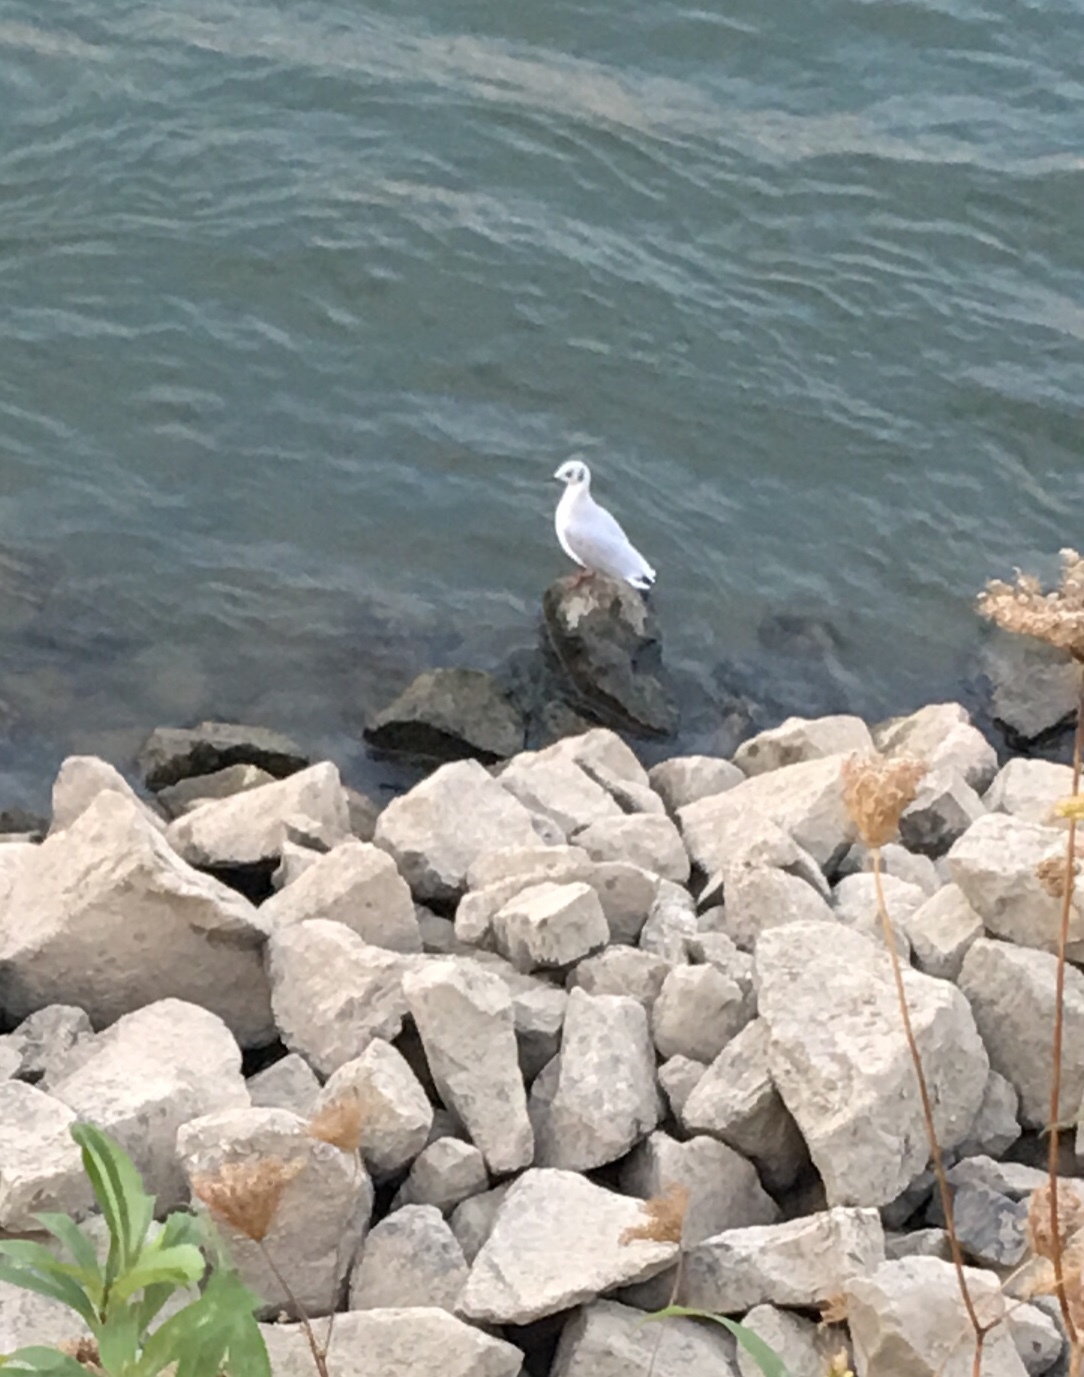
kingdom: Animalia
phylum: Chordata
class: Aves
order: Charadriiformes
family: Laridae
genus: Chroicocephalus
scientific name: Chroicocephalus ridibundus
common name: Black-headed gull
